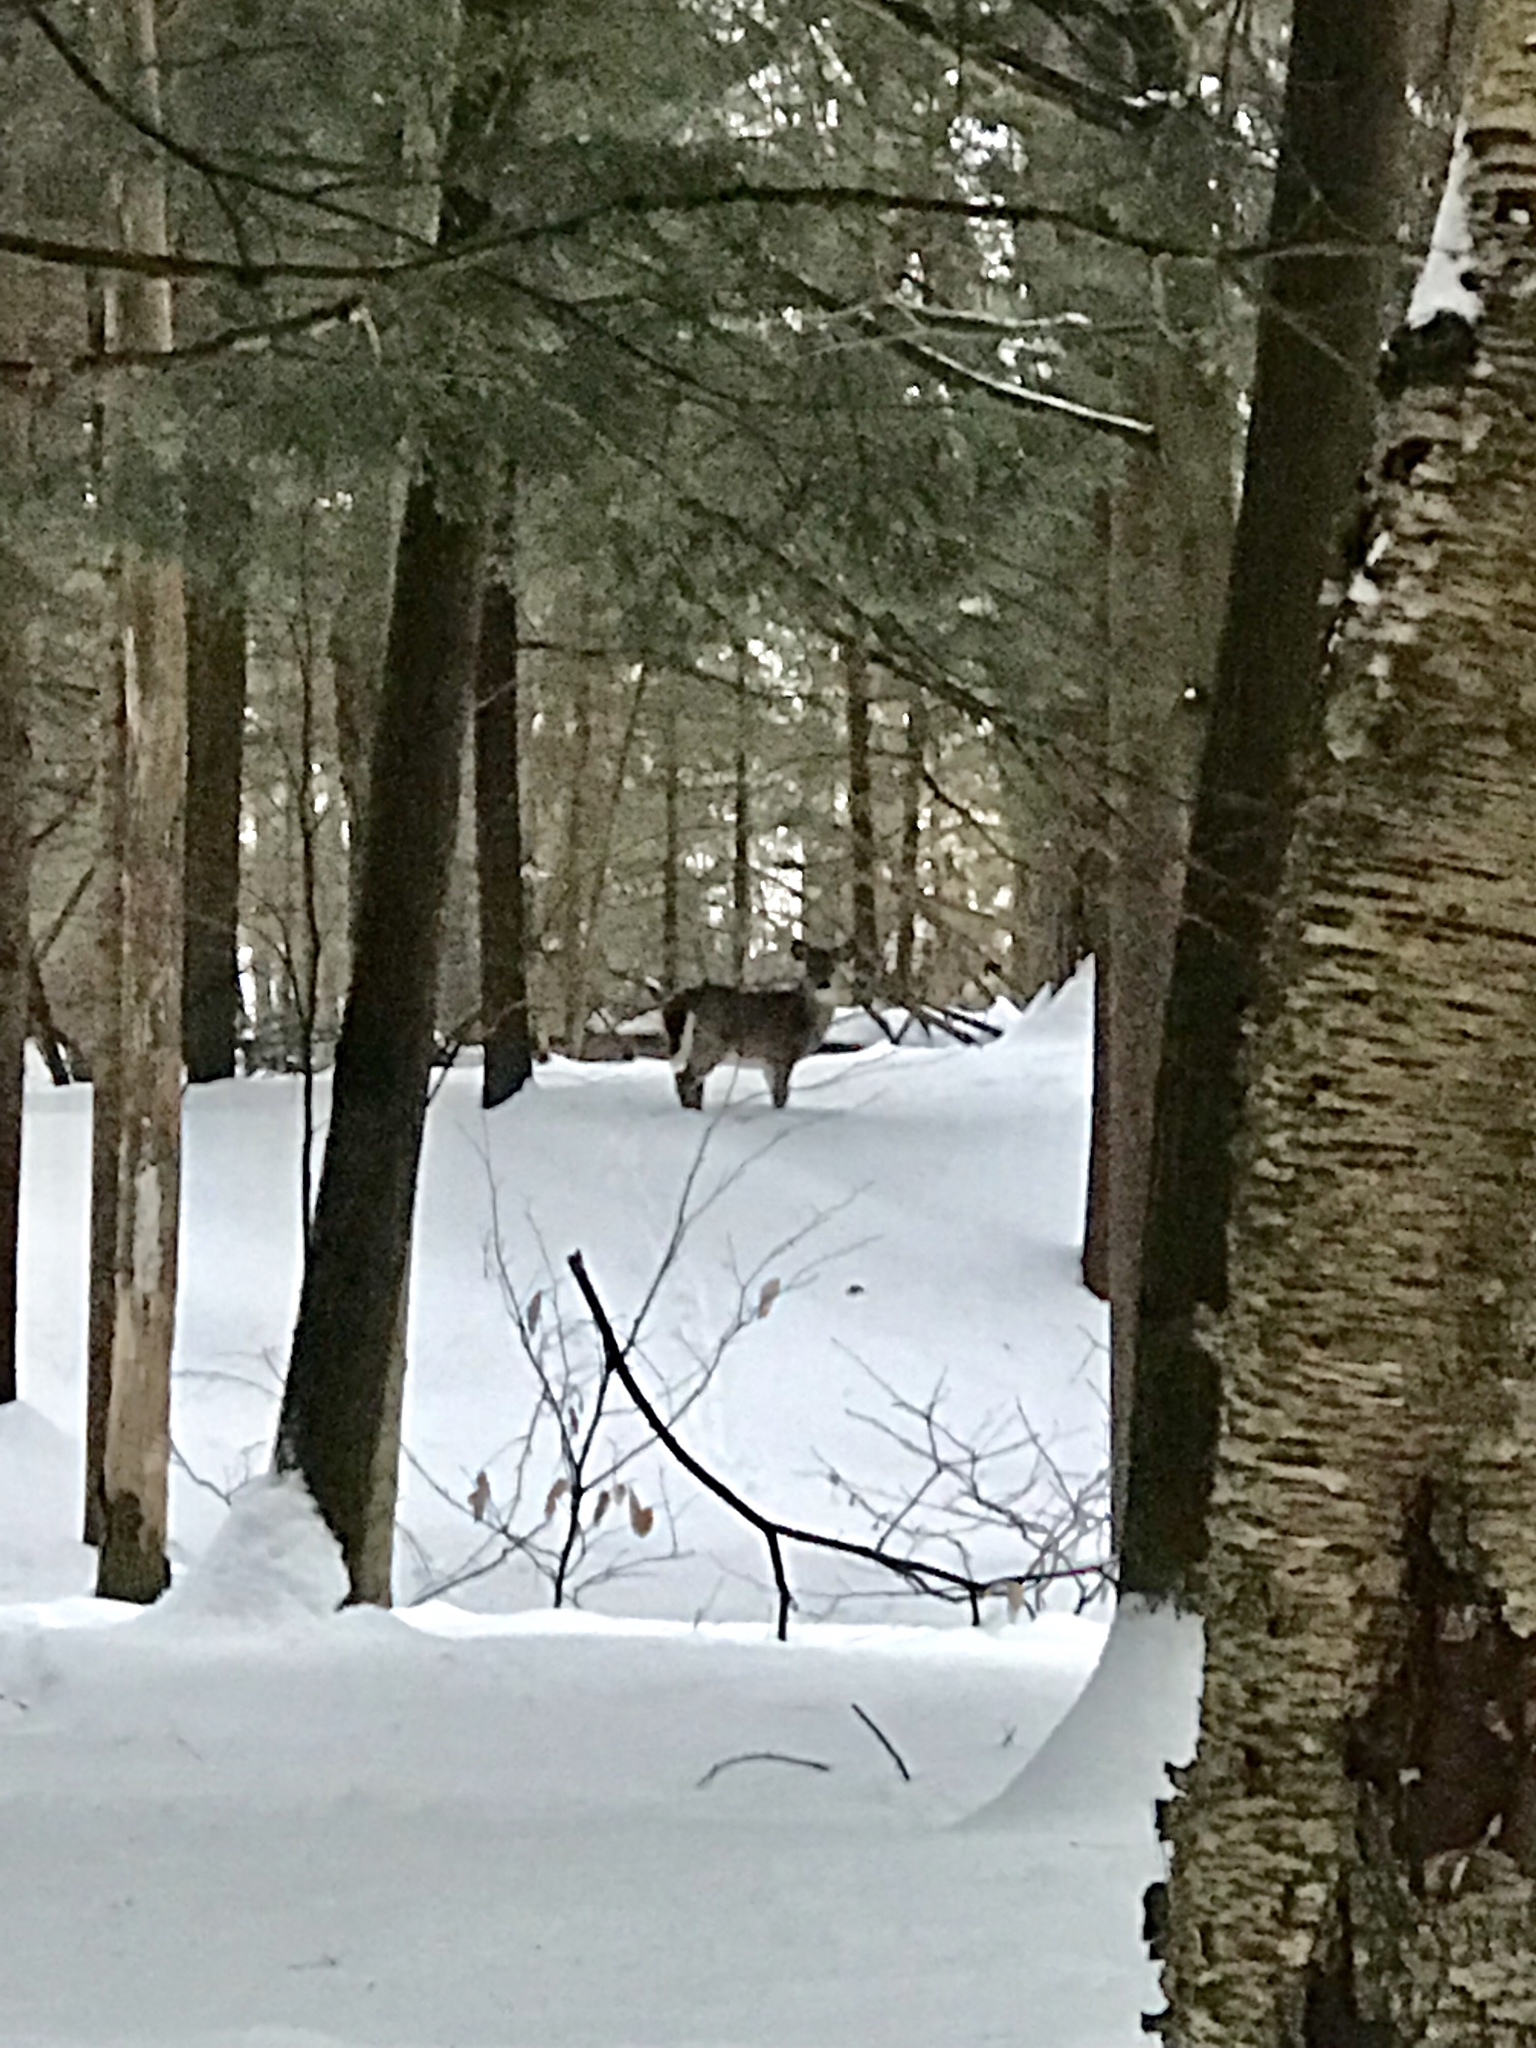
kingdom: Animalia
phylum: Chordata
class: Mammalia
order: Artiodactyla
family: Cervidae
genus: Odocoileus
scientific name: Odocoileus virginianus
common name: White-tailed deer
